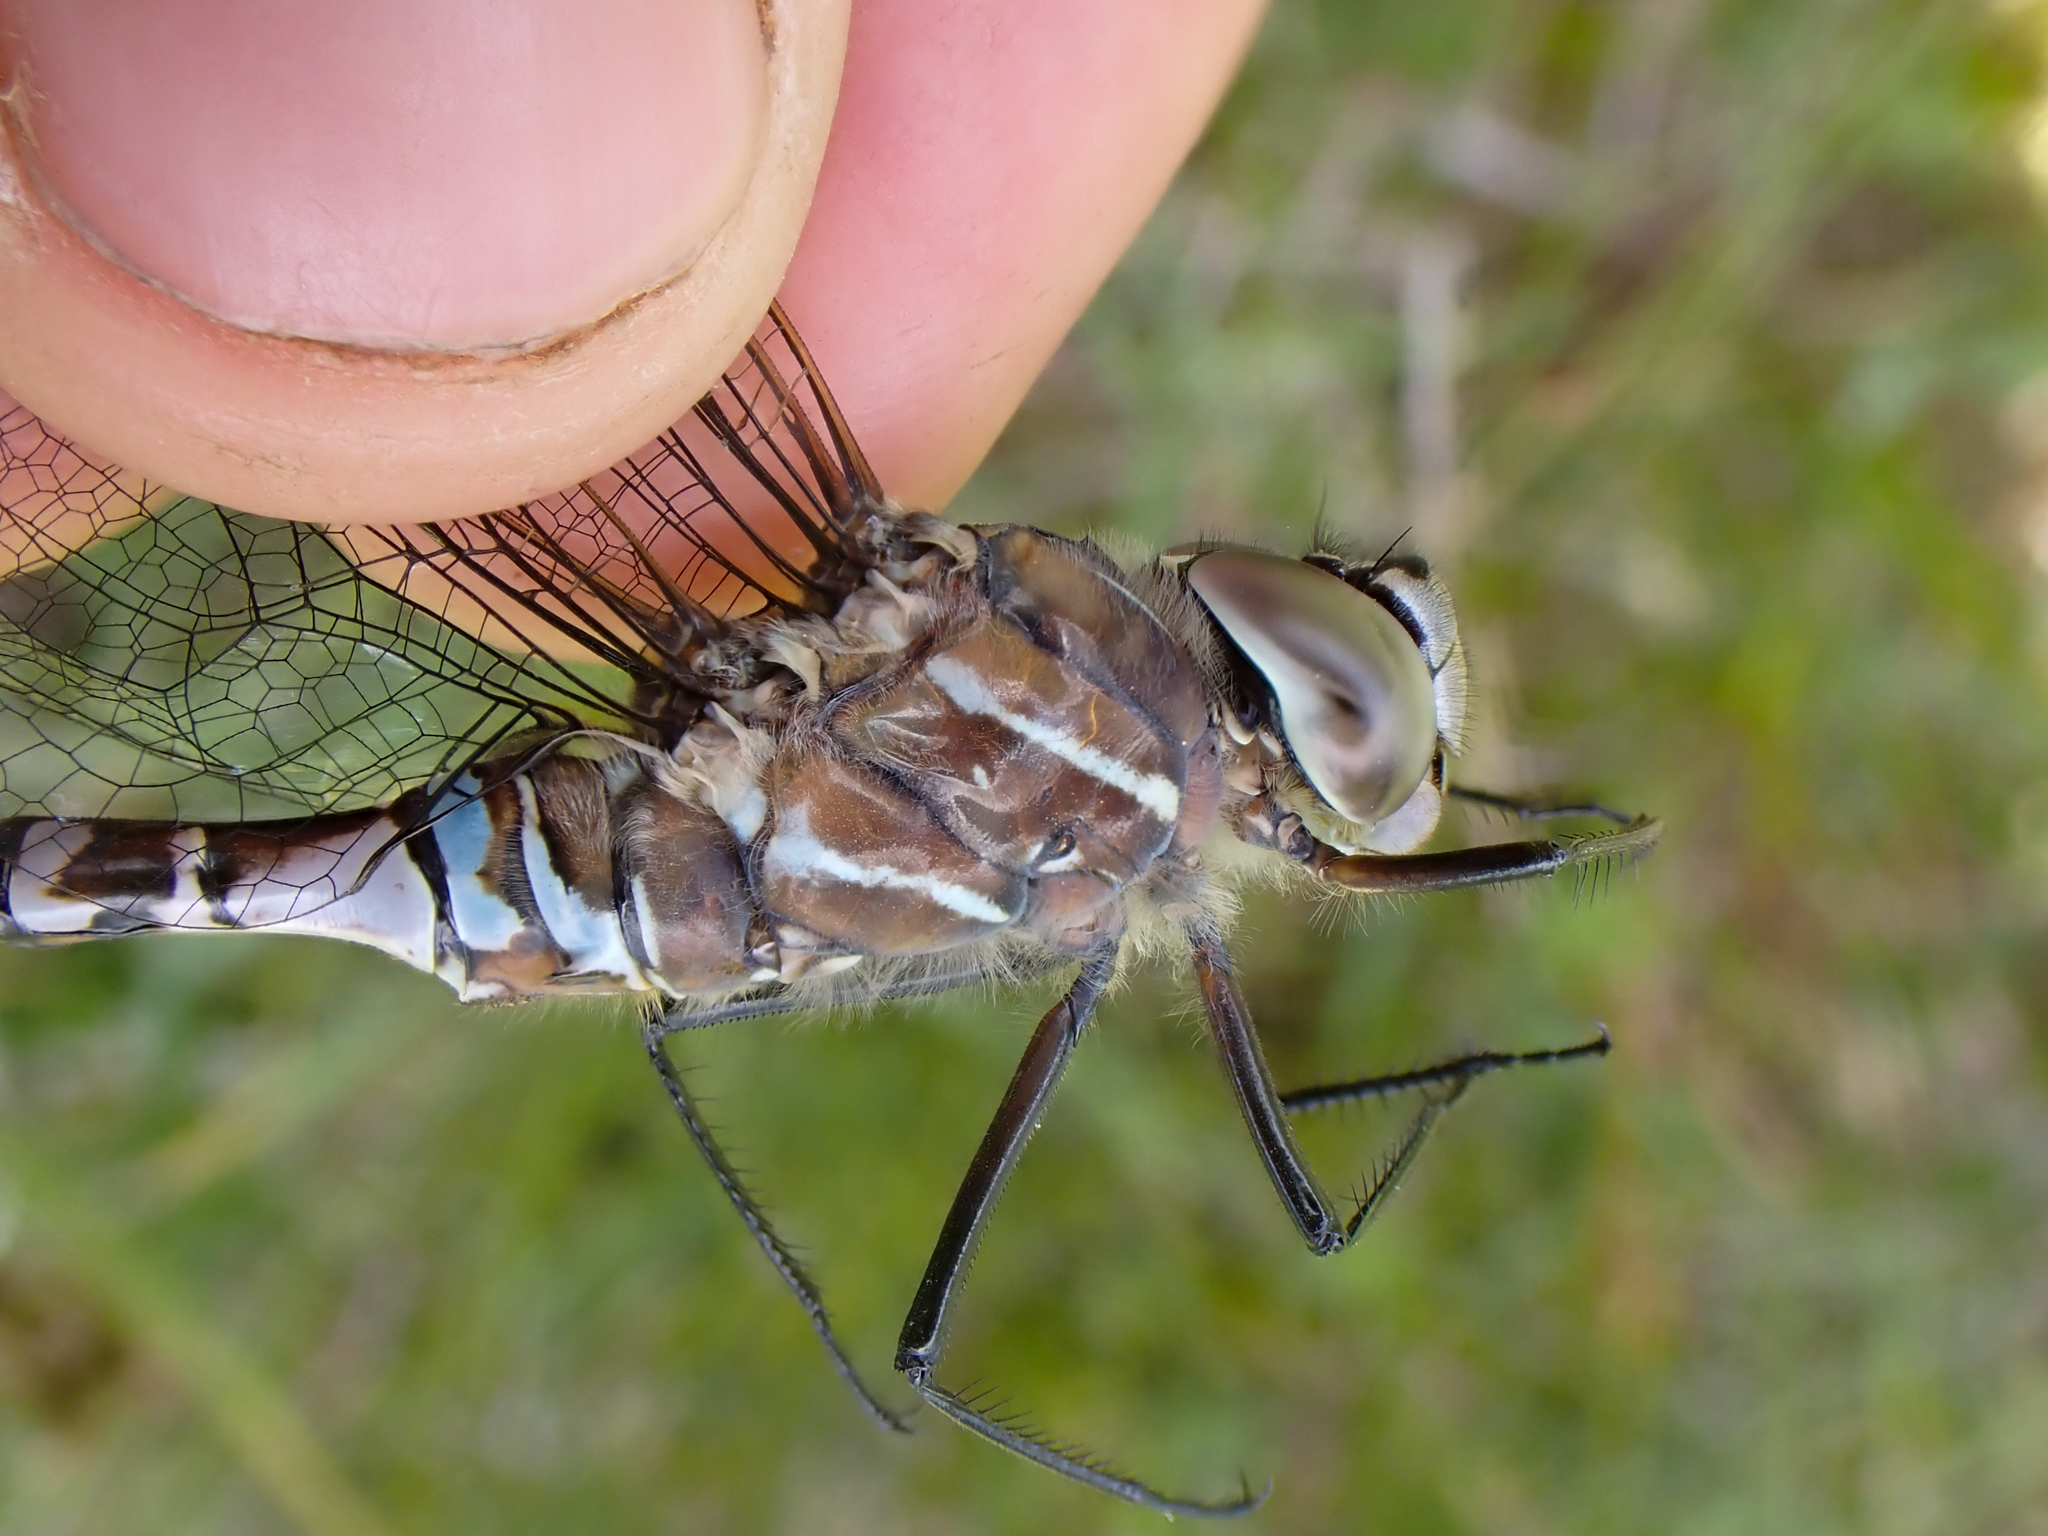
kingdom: Animalia
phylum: Arthropoda
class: Insecta
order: Odonata
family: Aeshnidae
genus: Aeshna
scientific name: Aeshna interrupta
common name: Variable darner
